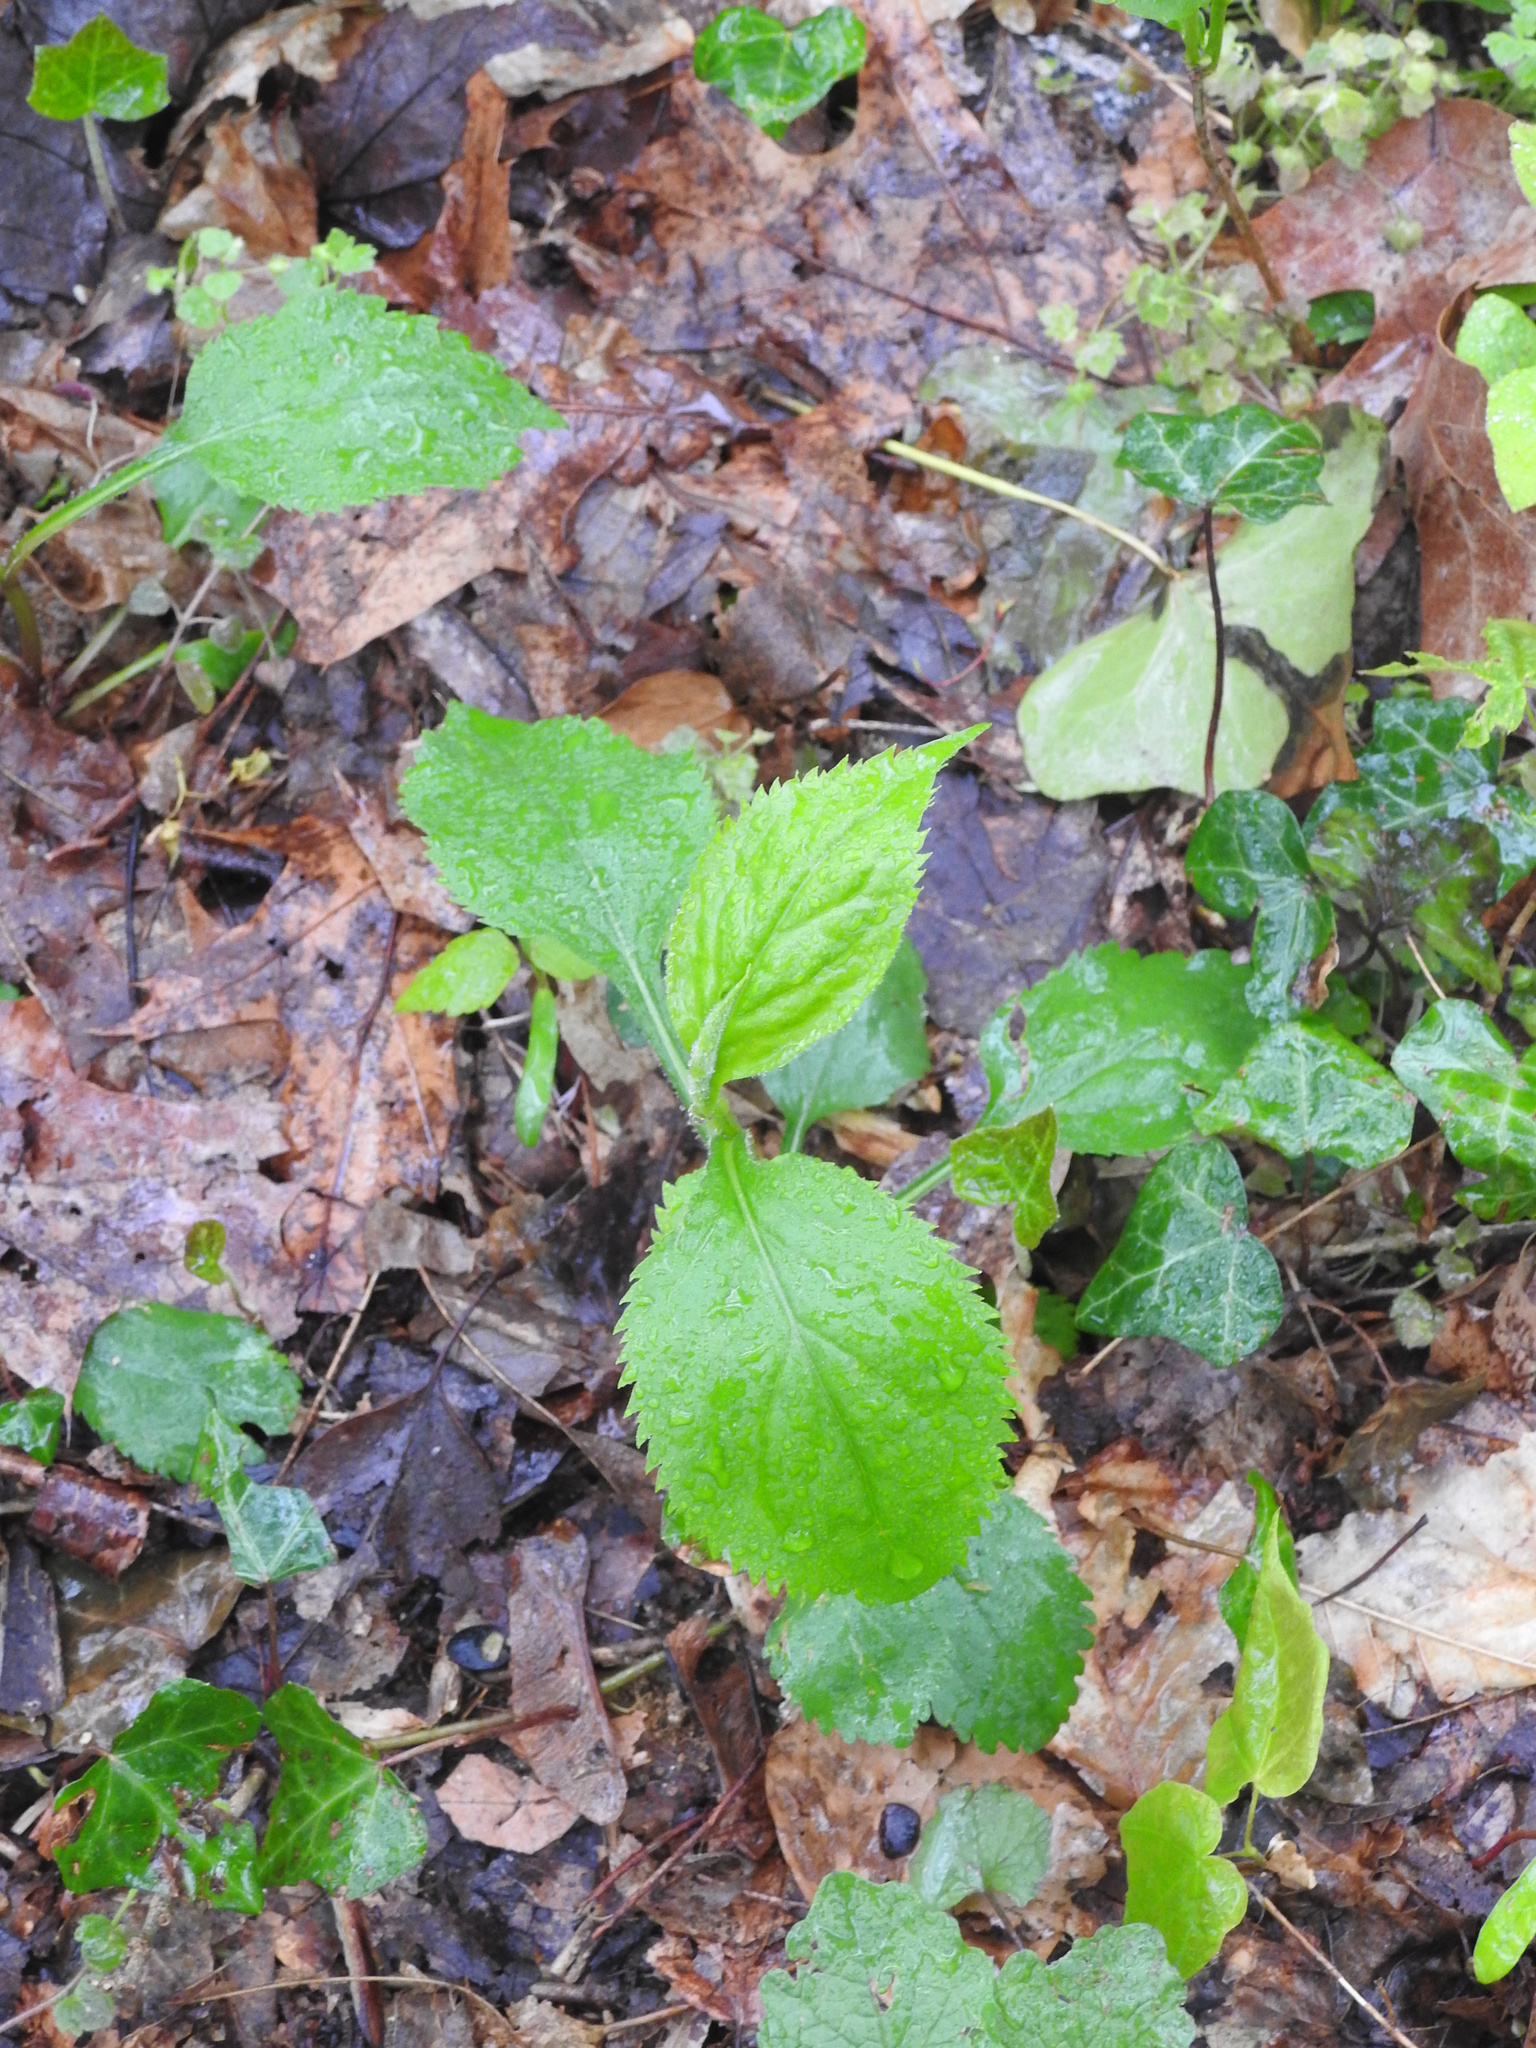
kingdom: Plantae
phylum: Tracheophyta
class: Magnoliopsida
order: Asterales
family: Asteraceae
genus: Solidago
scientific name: Solidago flexicaulis
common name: Zig-zag goldenrod
